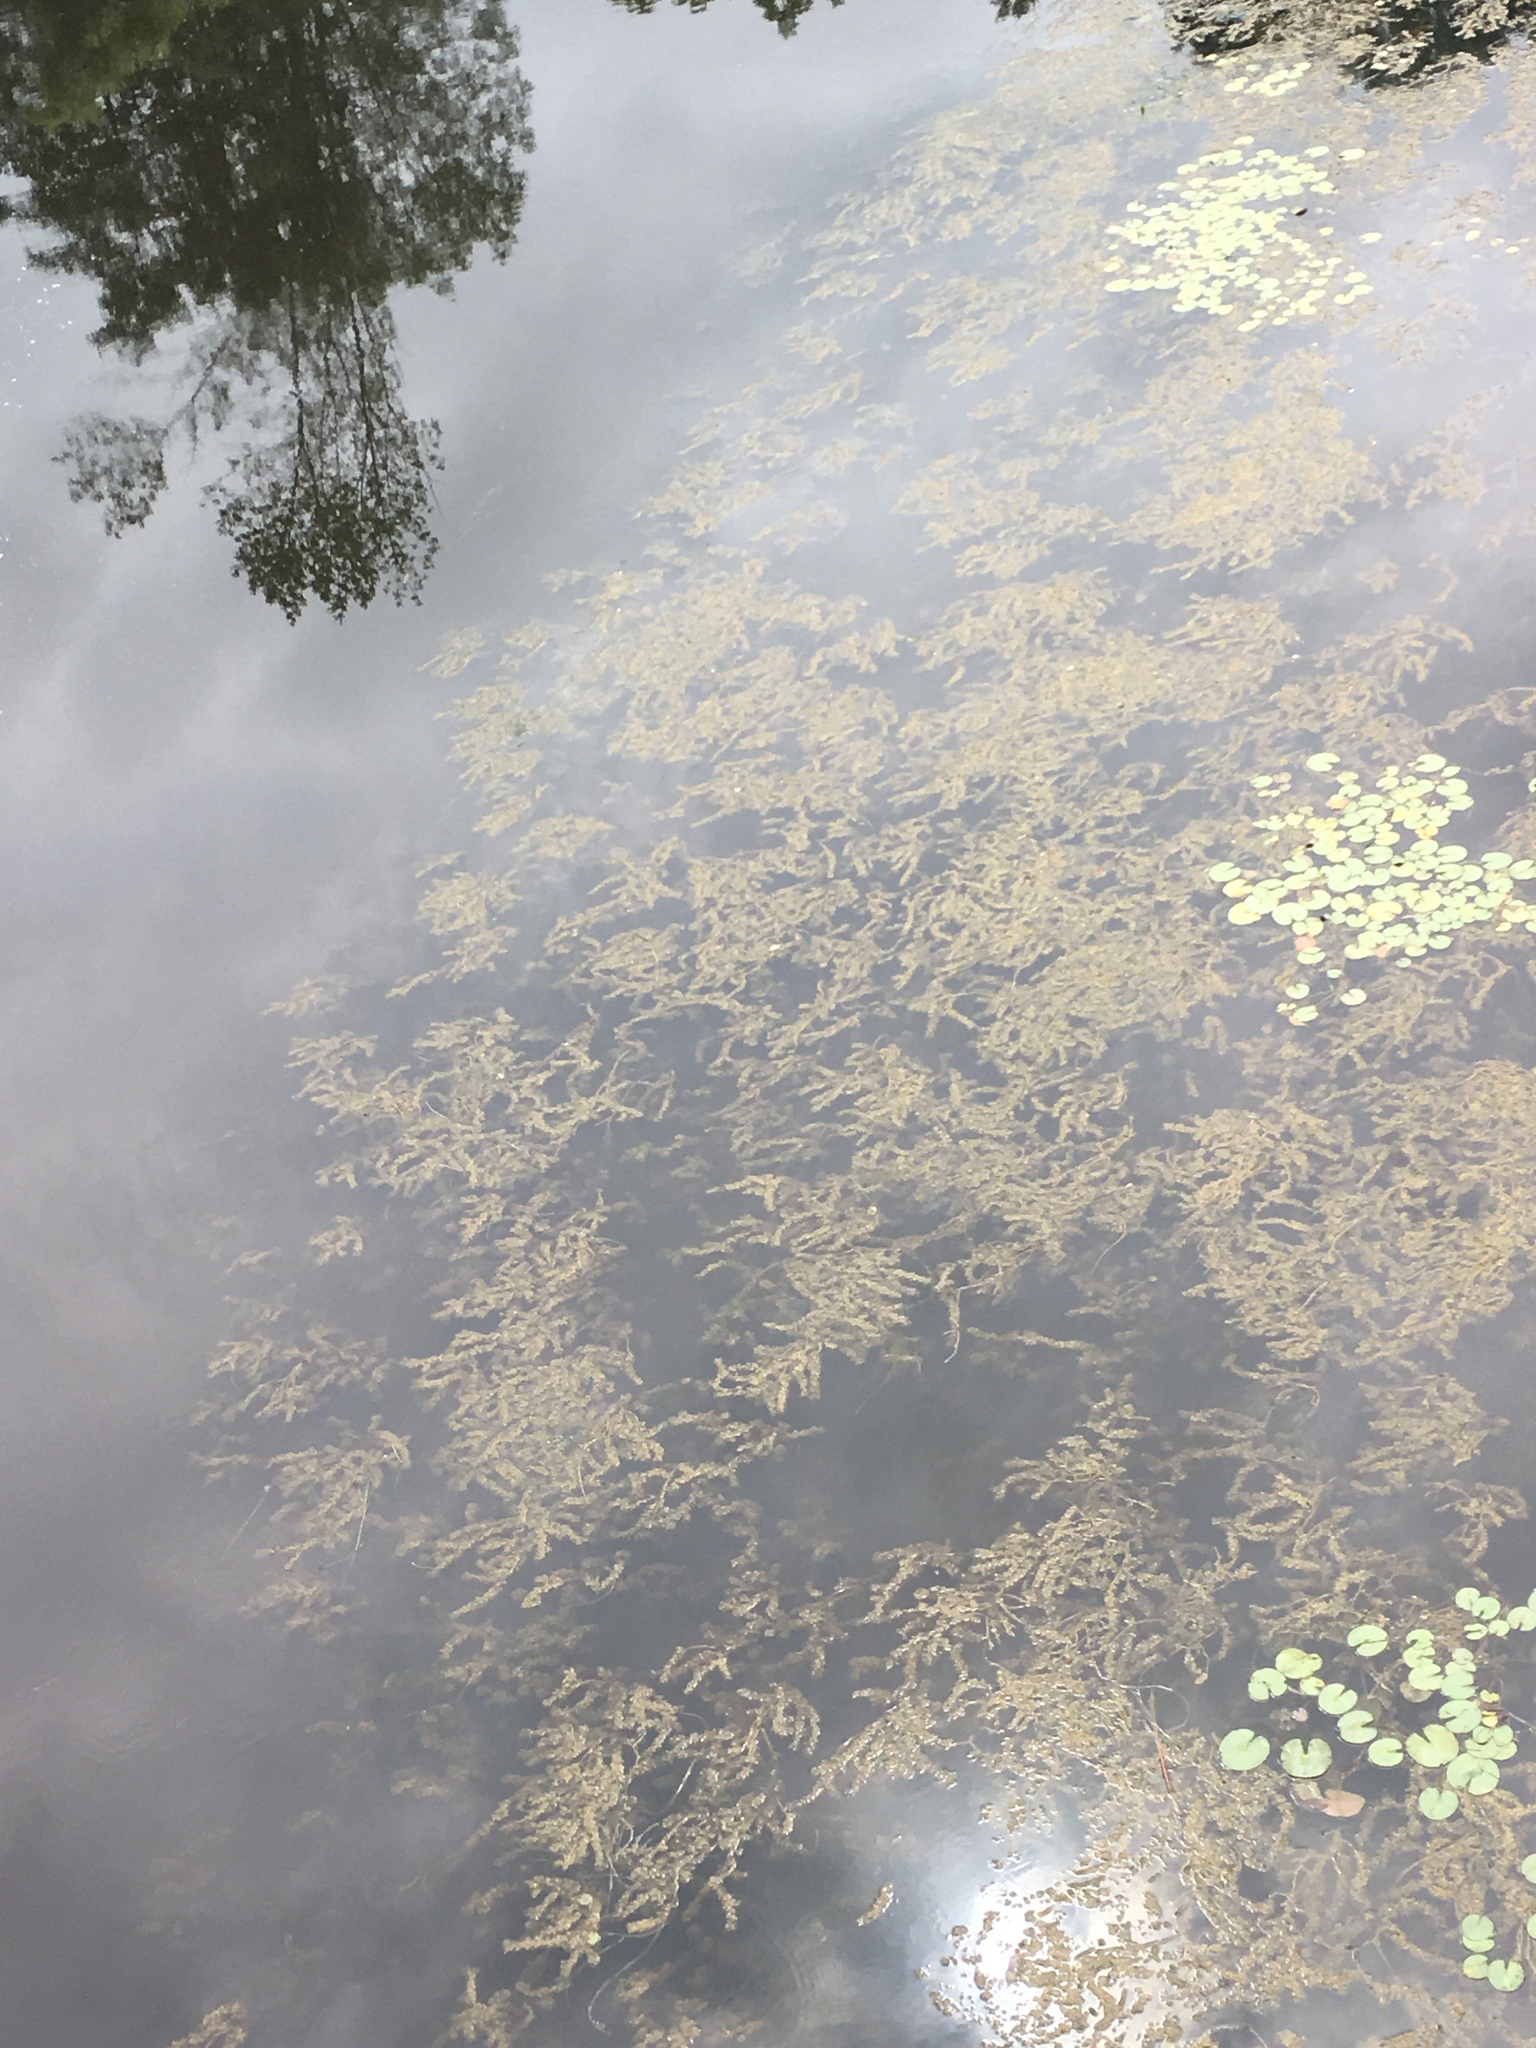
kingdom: Plantae
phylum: Tracheophyta
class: Liliopsida
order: Alismatales
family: Potamogetonaceae
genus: Potamogeton
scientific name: Potamogeton crispus
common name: Curled pondweed
